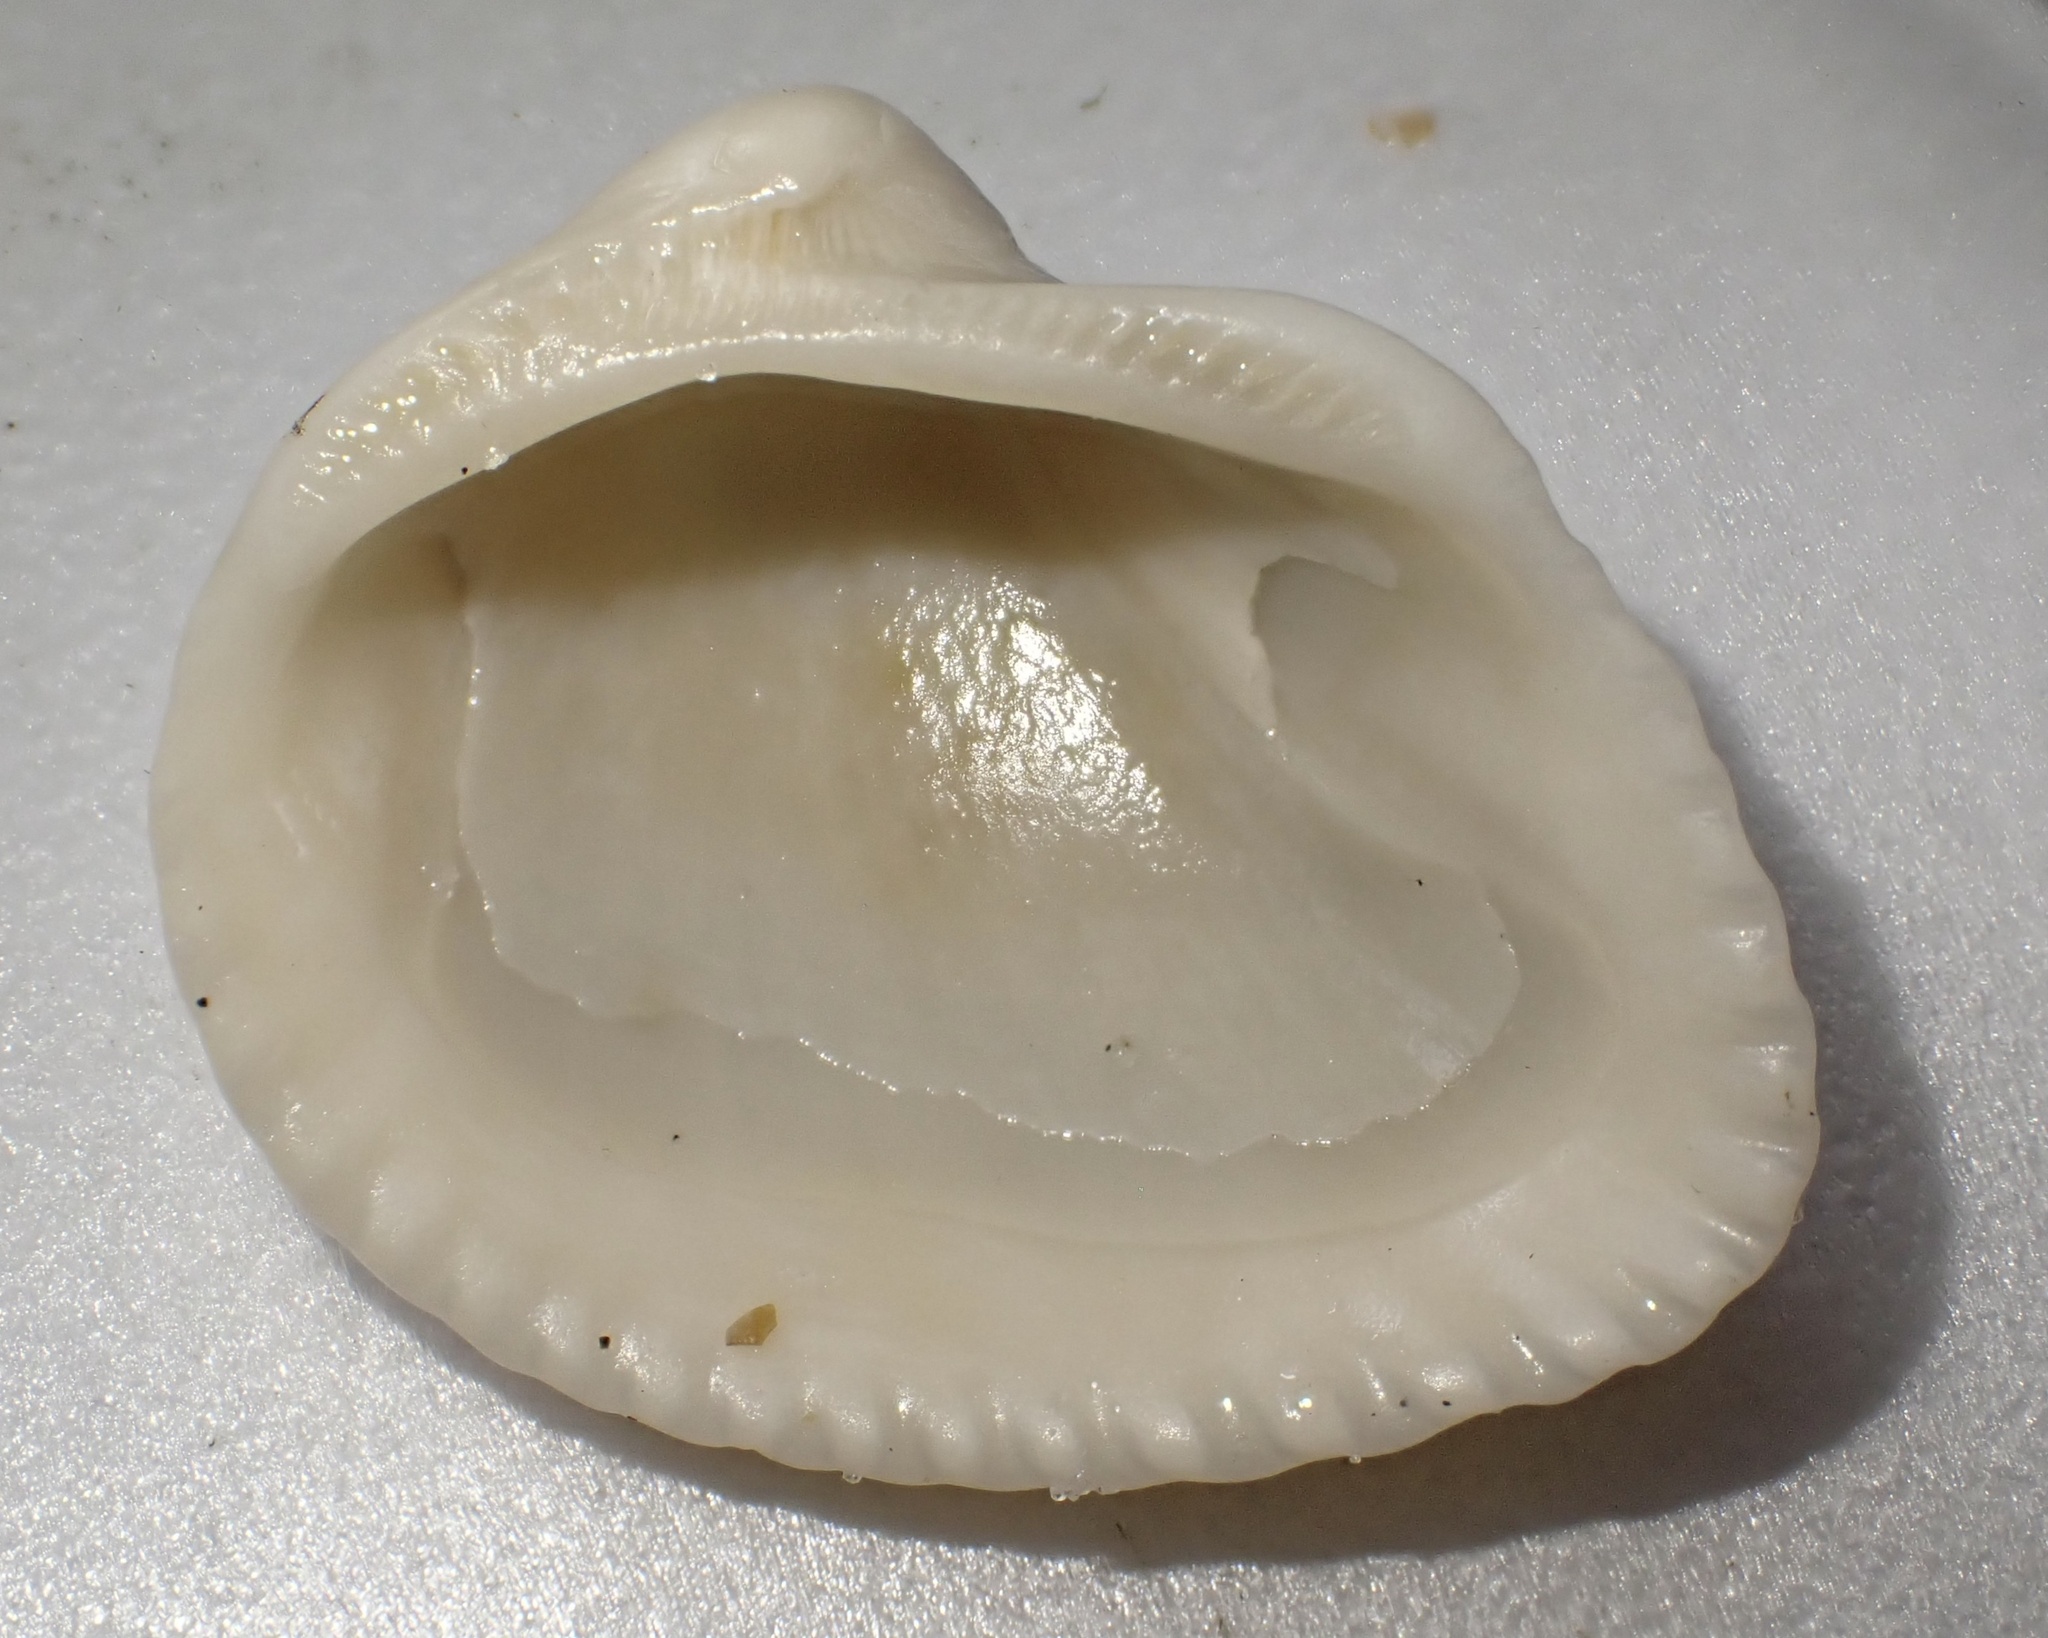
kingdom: Animalia
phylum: Mollusca
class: Bivalvia
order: Arcida
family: Noetiidae
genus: Noetia
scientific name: Noetia ponderosa
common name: Ponderous ark
